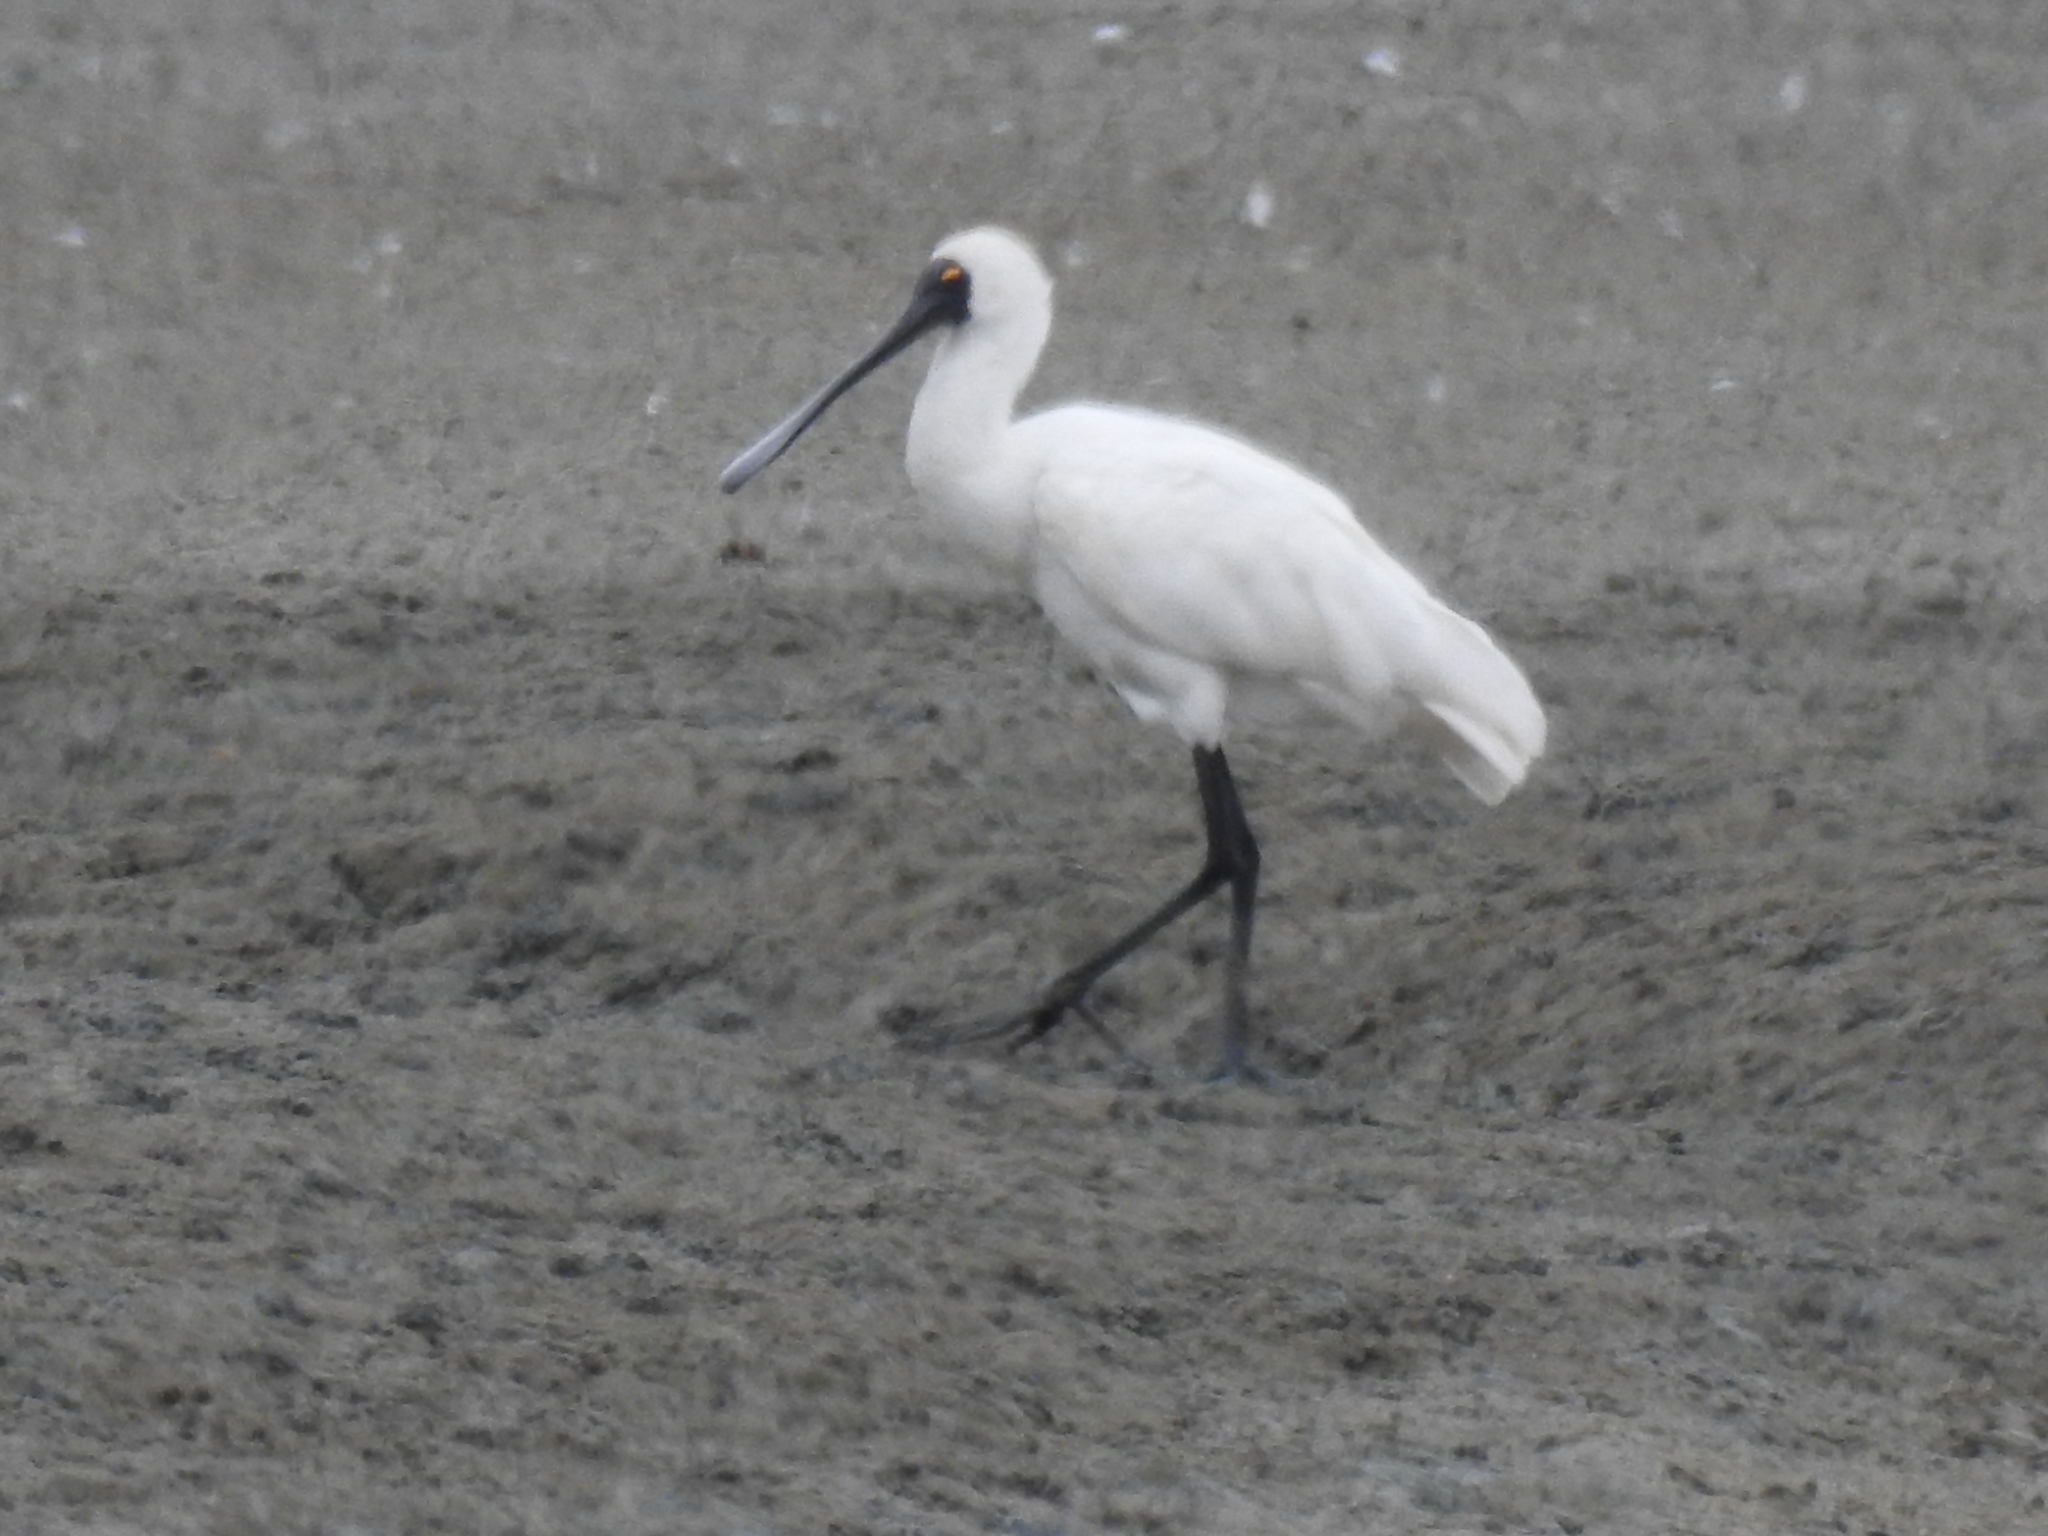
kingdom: Animalia
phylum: Chordata
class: Aves
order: Pelecaniformes
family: Threskiornithidae
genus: Platalea
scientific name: Platalea regia
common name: Royal spoonbill
